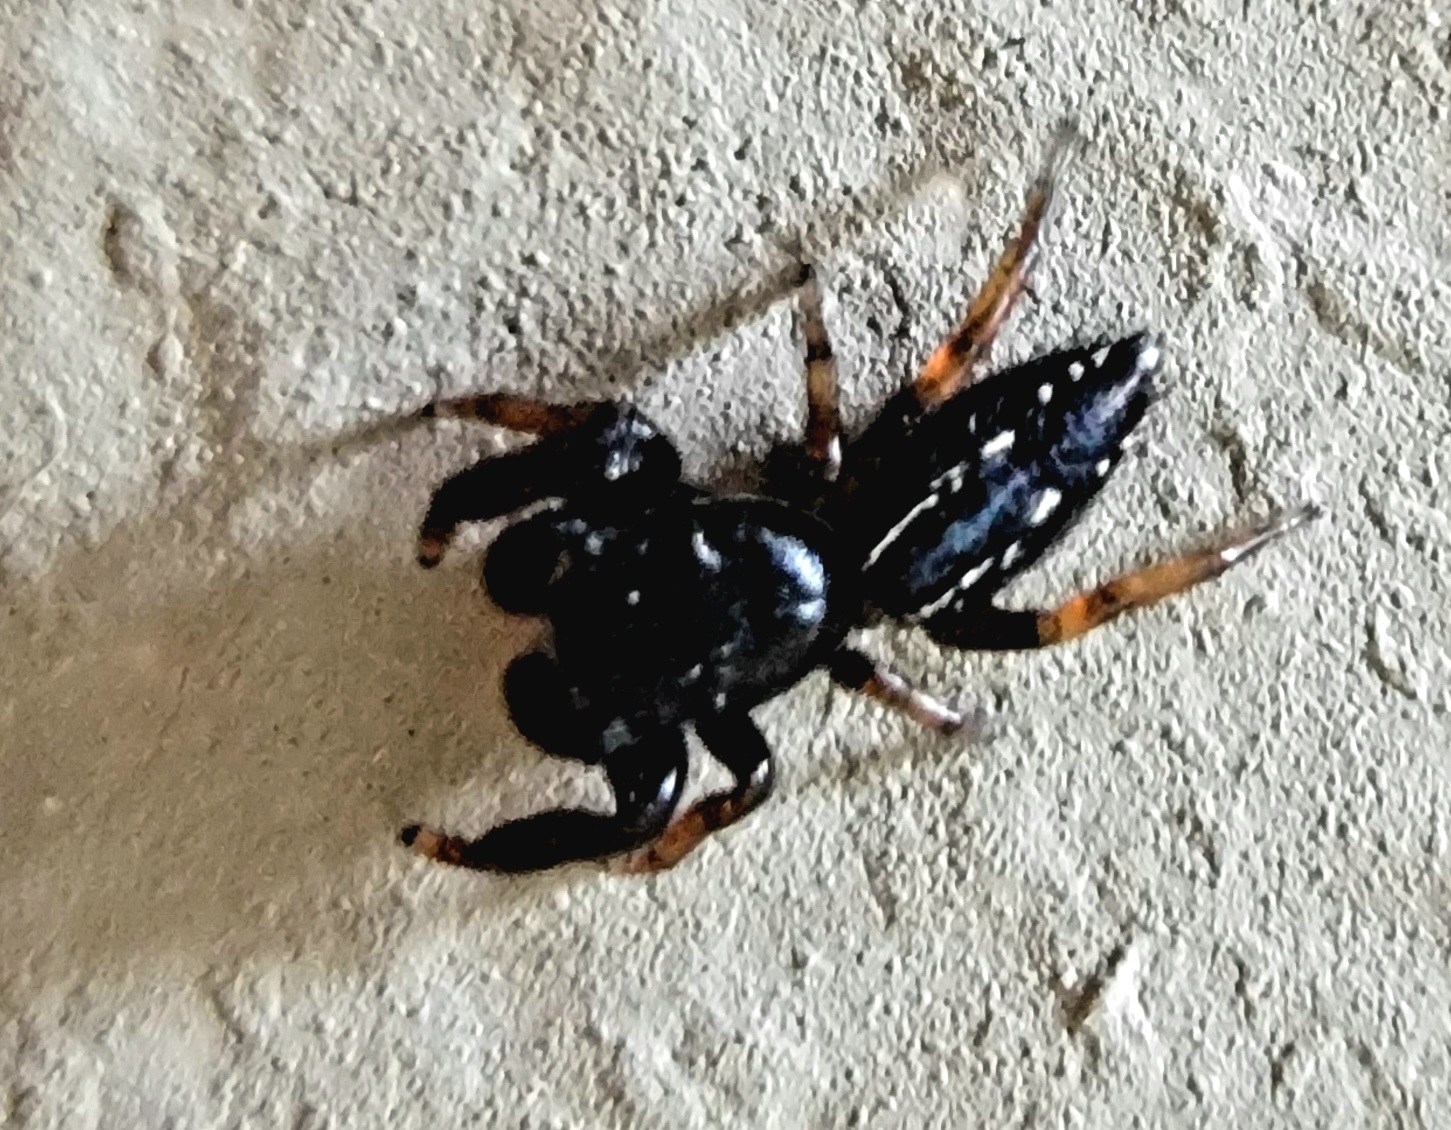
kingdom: Animalia
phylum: Arthropoda
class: Arachnida
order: Araneae
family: Salticidae
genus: Metacyrba
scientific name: Metacyrba taeniola
